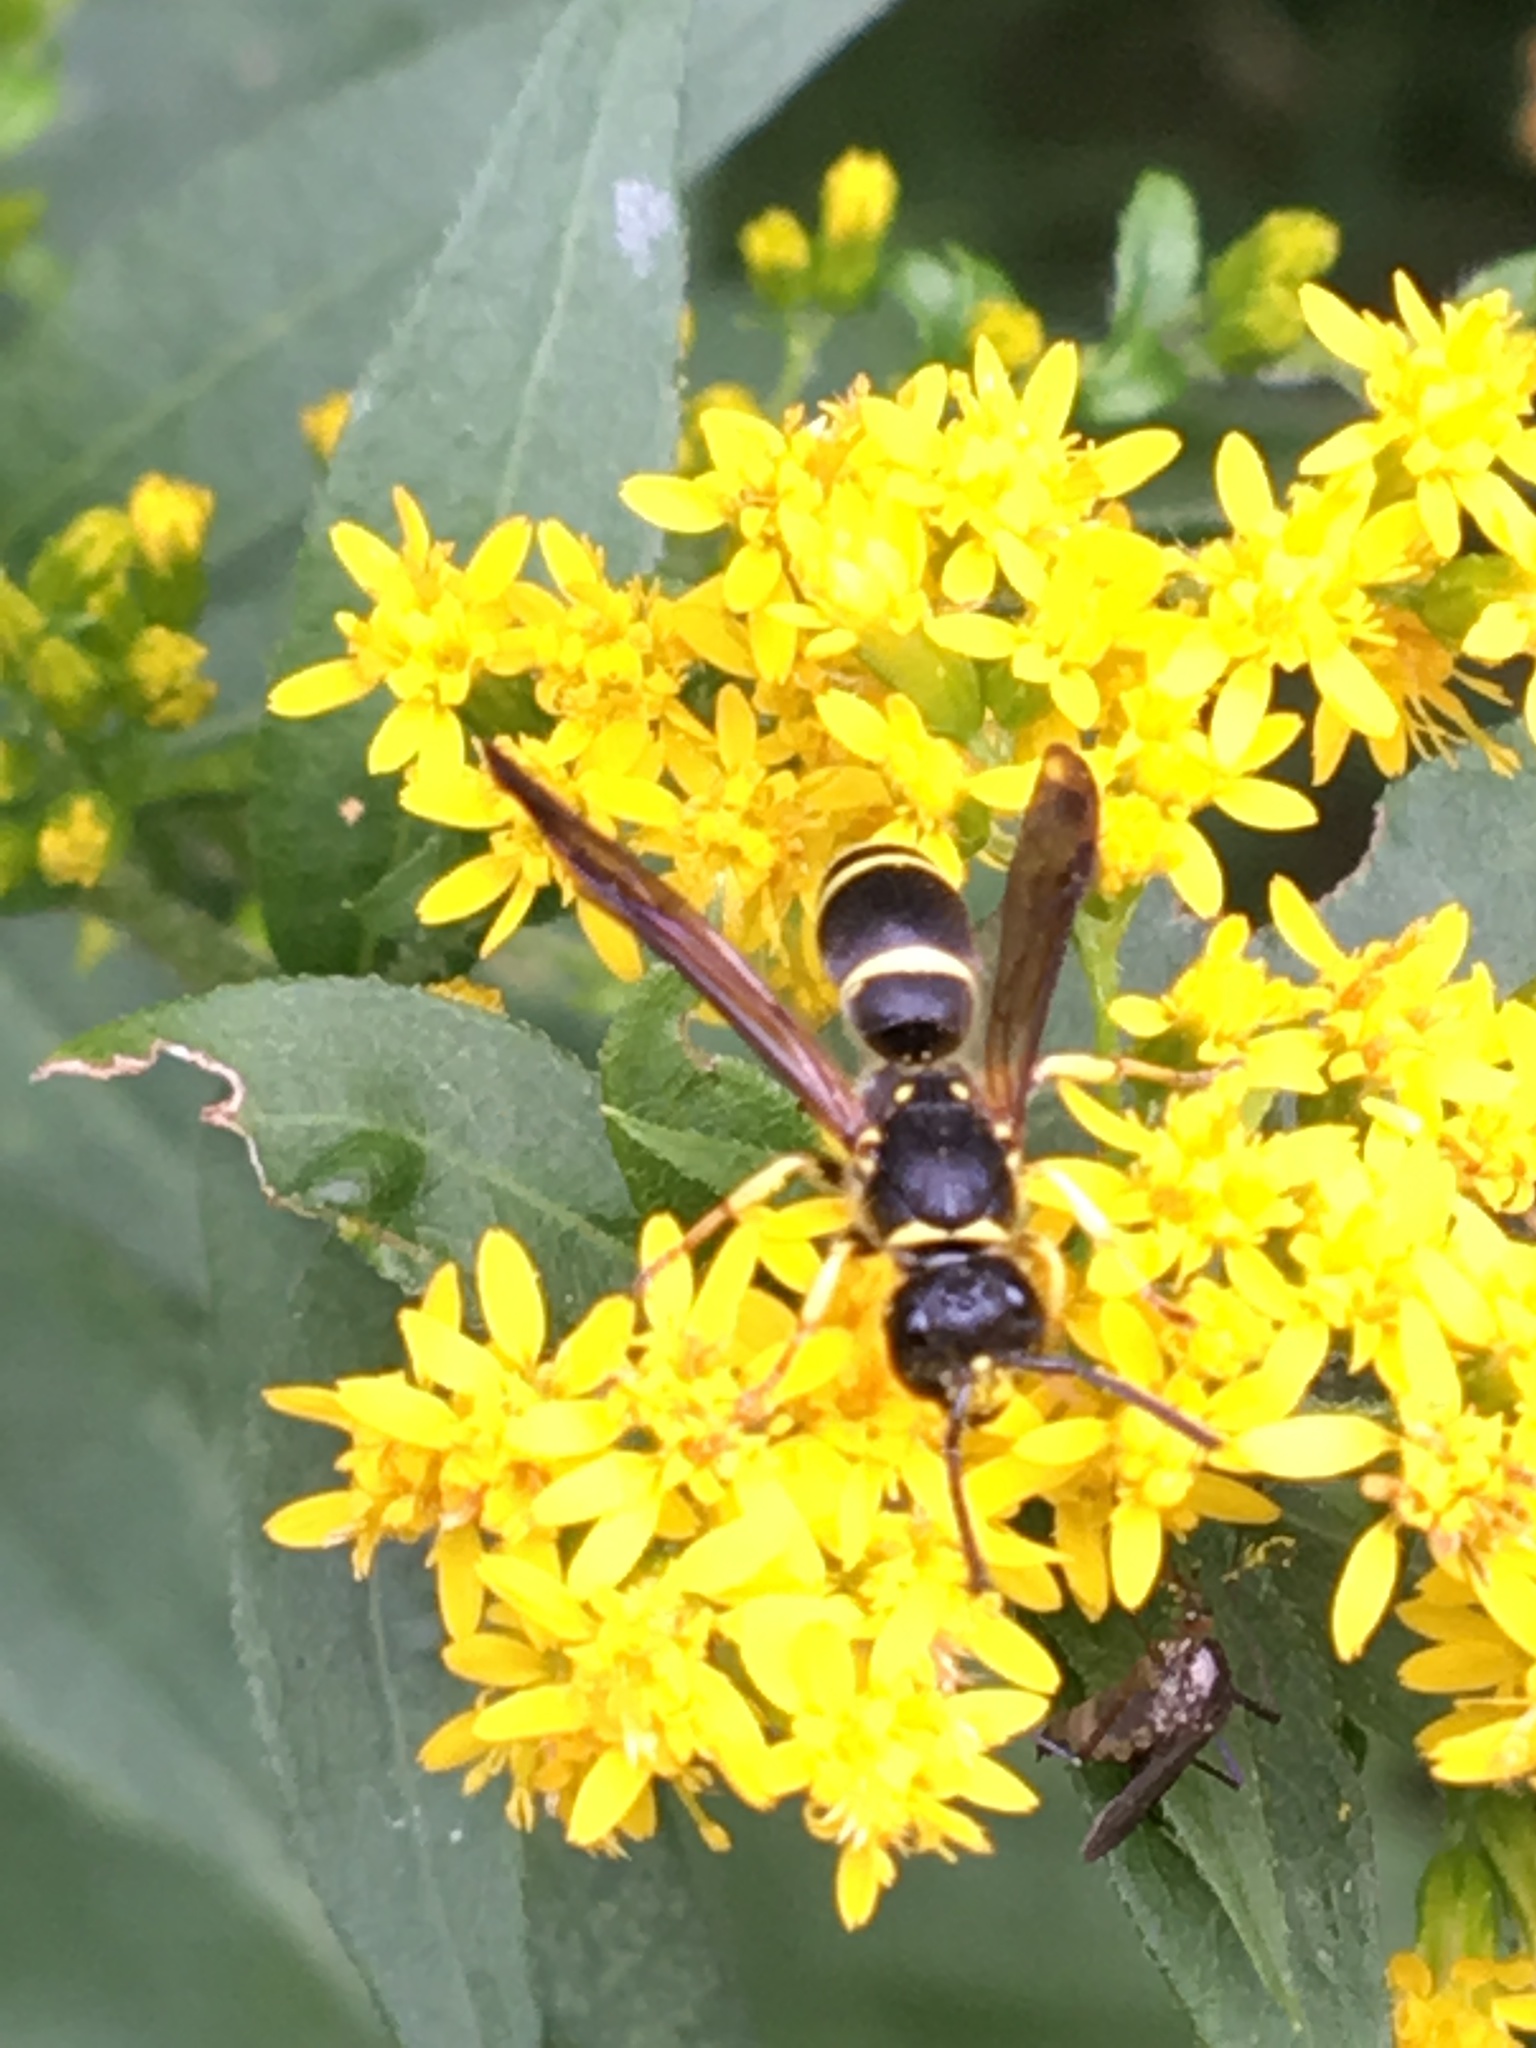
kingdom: Animalia
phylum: Arthropoda
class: Insecta
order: Hymenoptera
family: Vespidae
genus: Ancistrocerus
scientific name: Ancistrocerus adiabatus
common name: Bramble mason wasp
